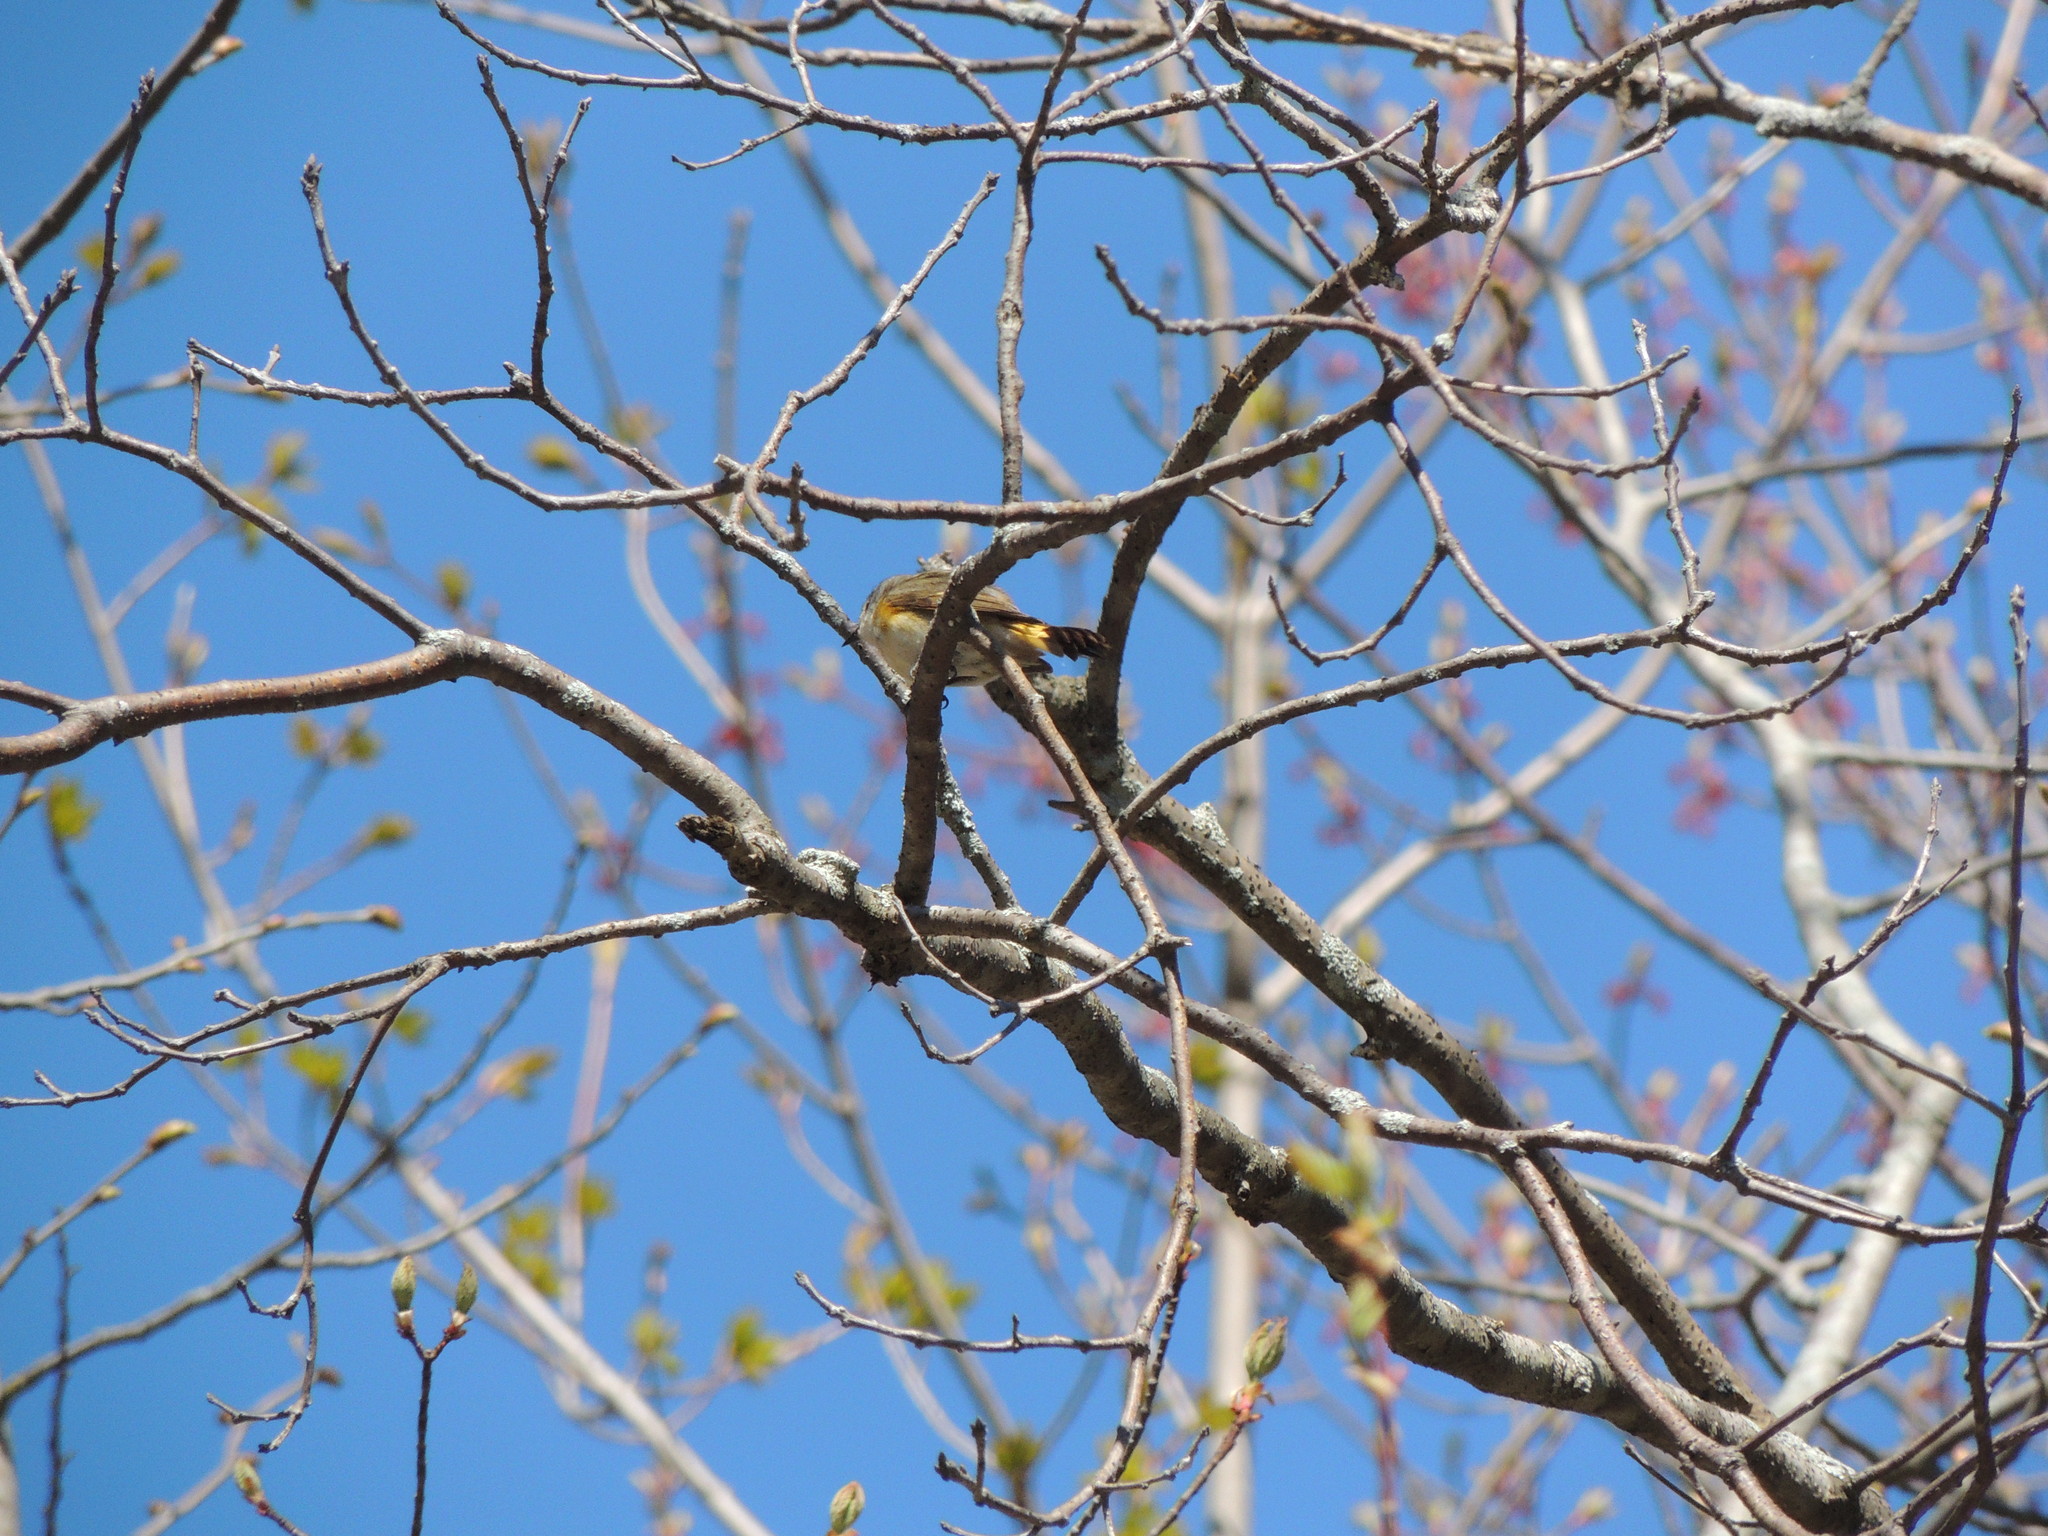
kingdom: Animalia
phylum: Chordata
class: Aves
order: Passeriformes
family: Parulidae
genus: Setophaga
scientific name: Setophaga ruticilla
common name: American redstart
